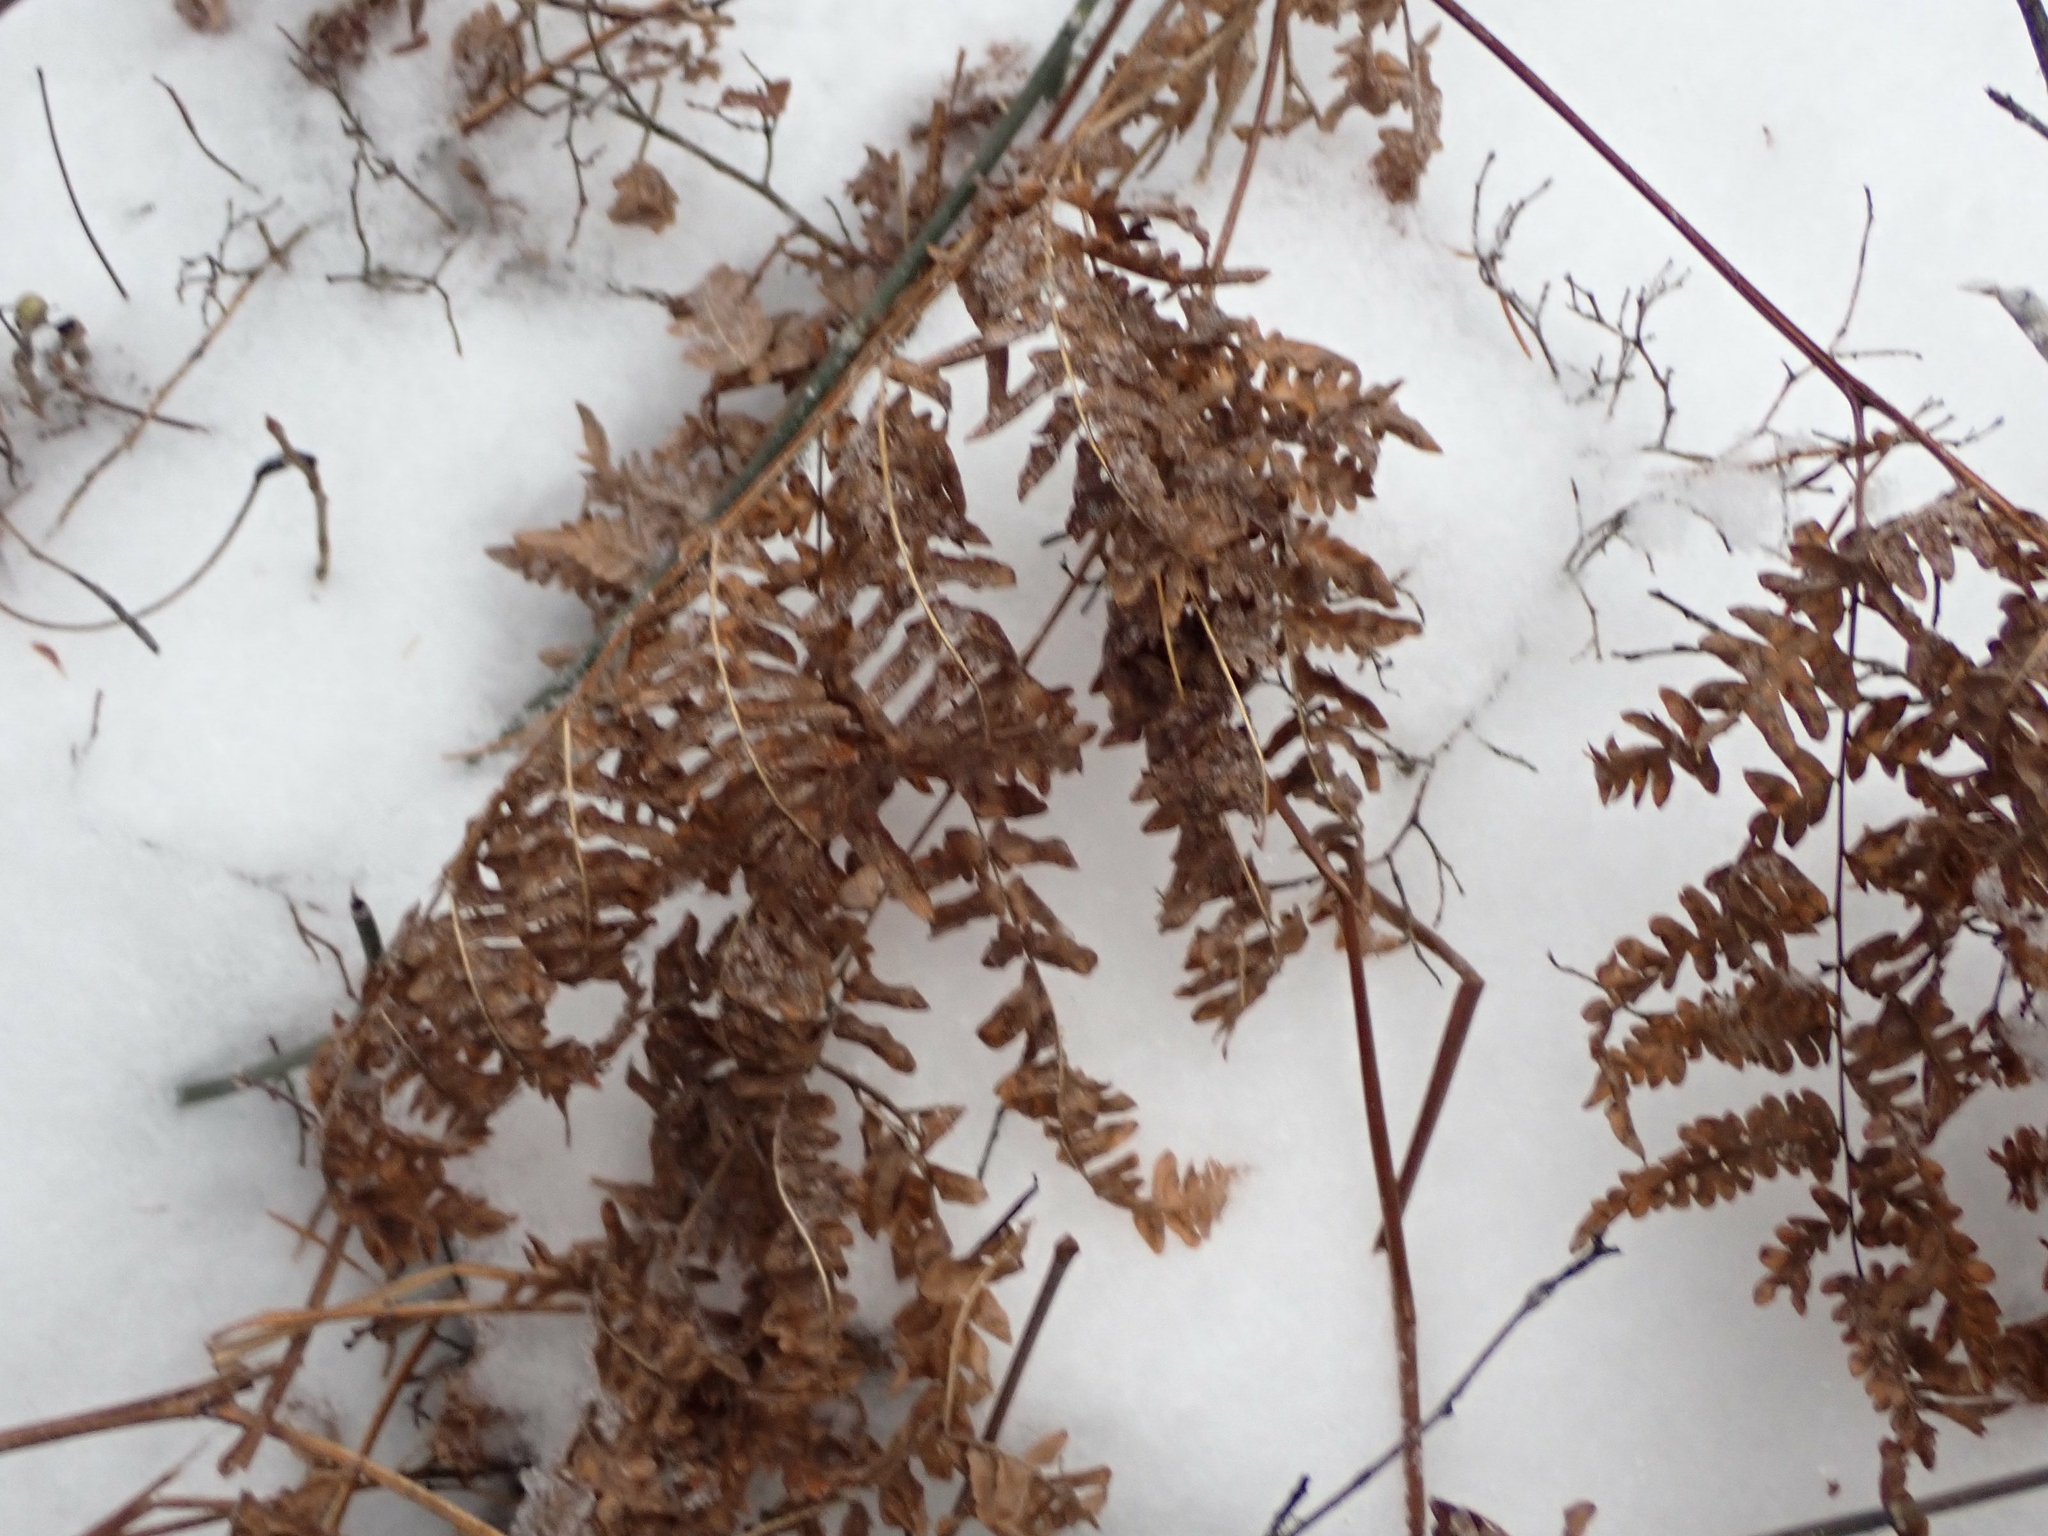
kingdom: Plantae
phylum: Tracheophyta
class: Polypodiopsida
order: Polypodiales
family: Dennstaedtiaceae
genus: Pteridium
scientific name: Pteridium aquilinum
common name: Bracken
